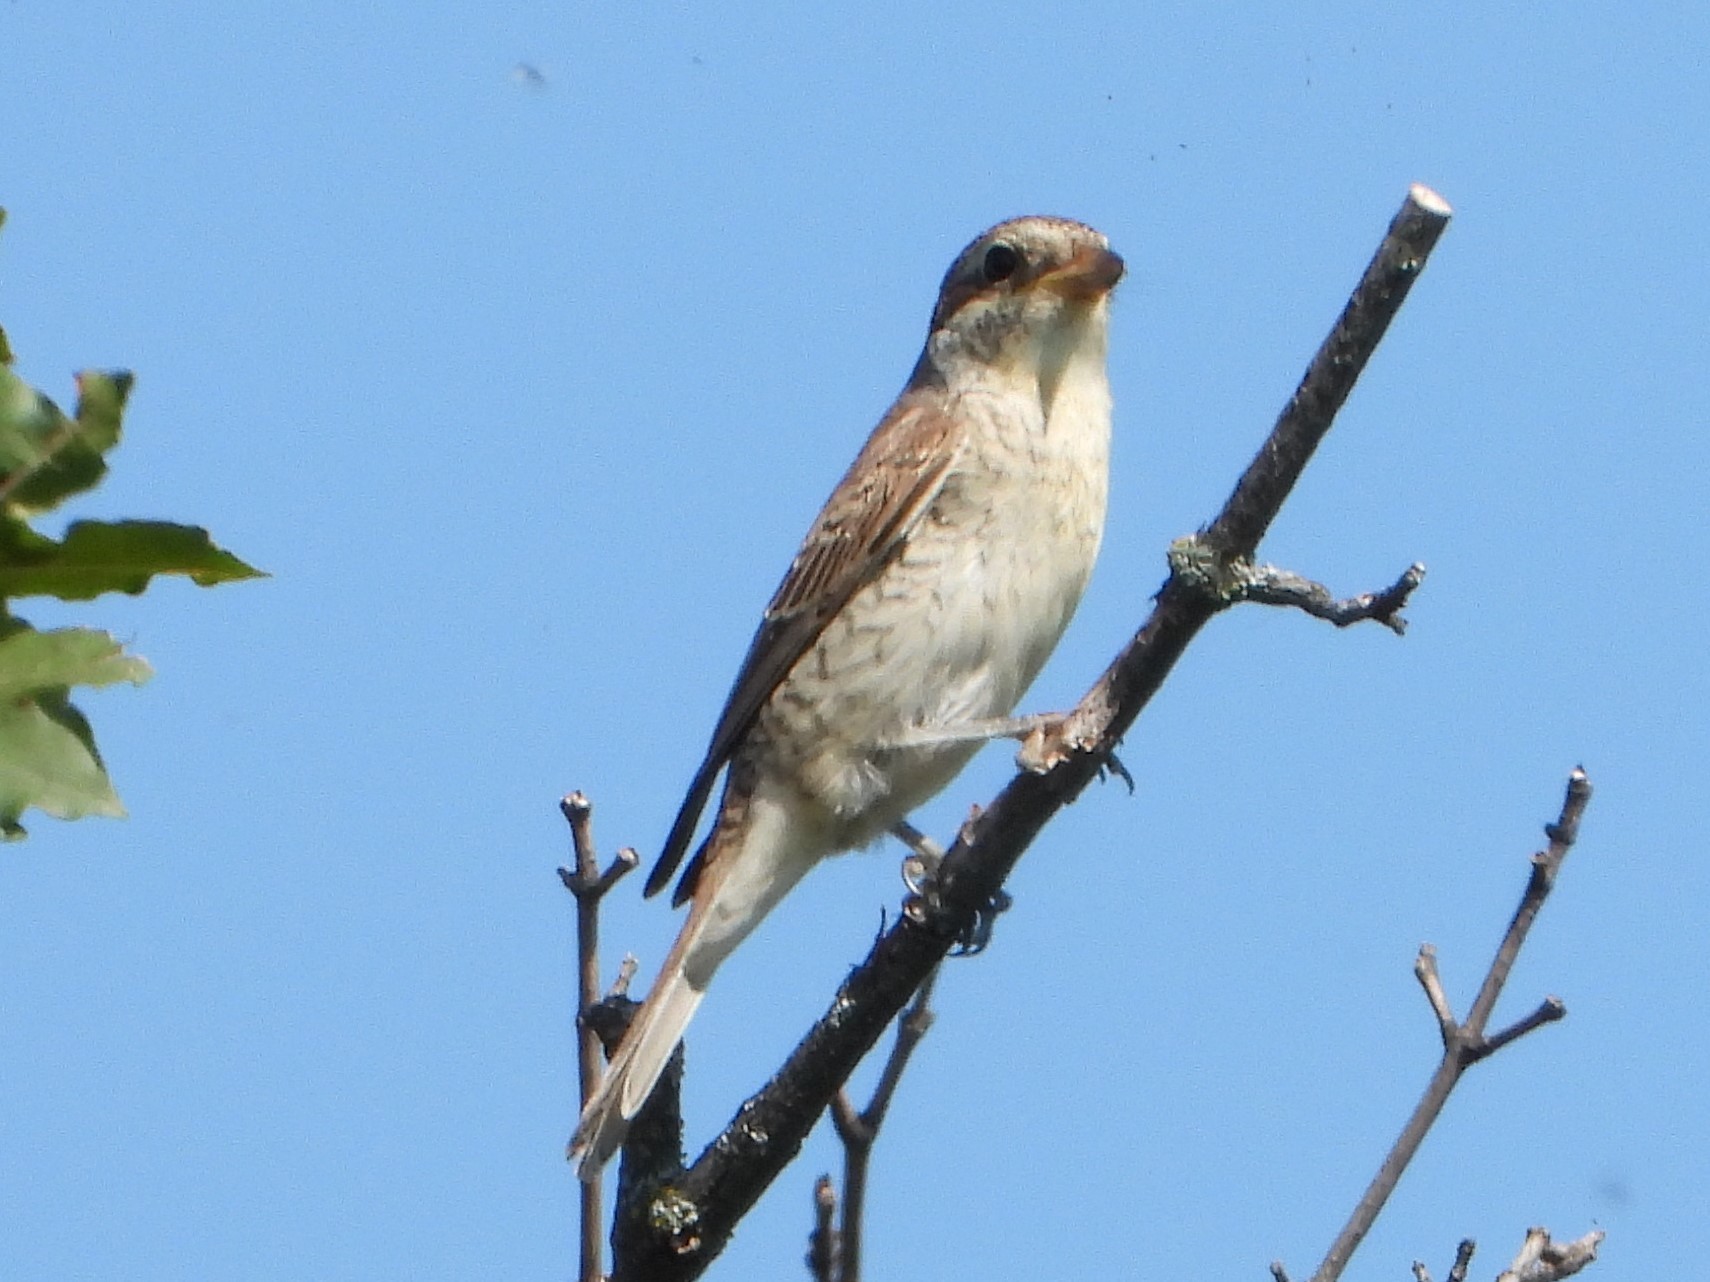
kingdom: Animalia
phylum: Chordata
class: Aves
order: Passeriformes
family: Laniidae
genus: Lanius
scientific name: Lanius collurio
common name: Red-backed shrike
